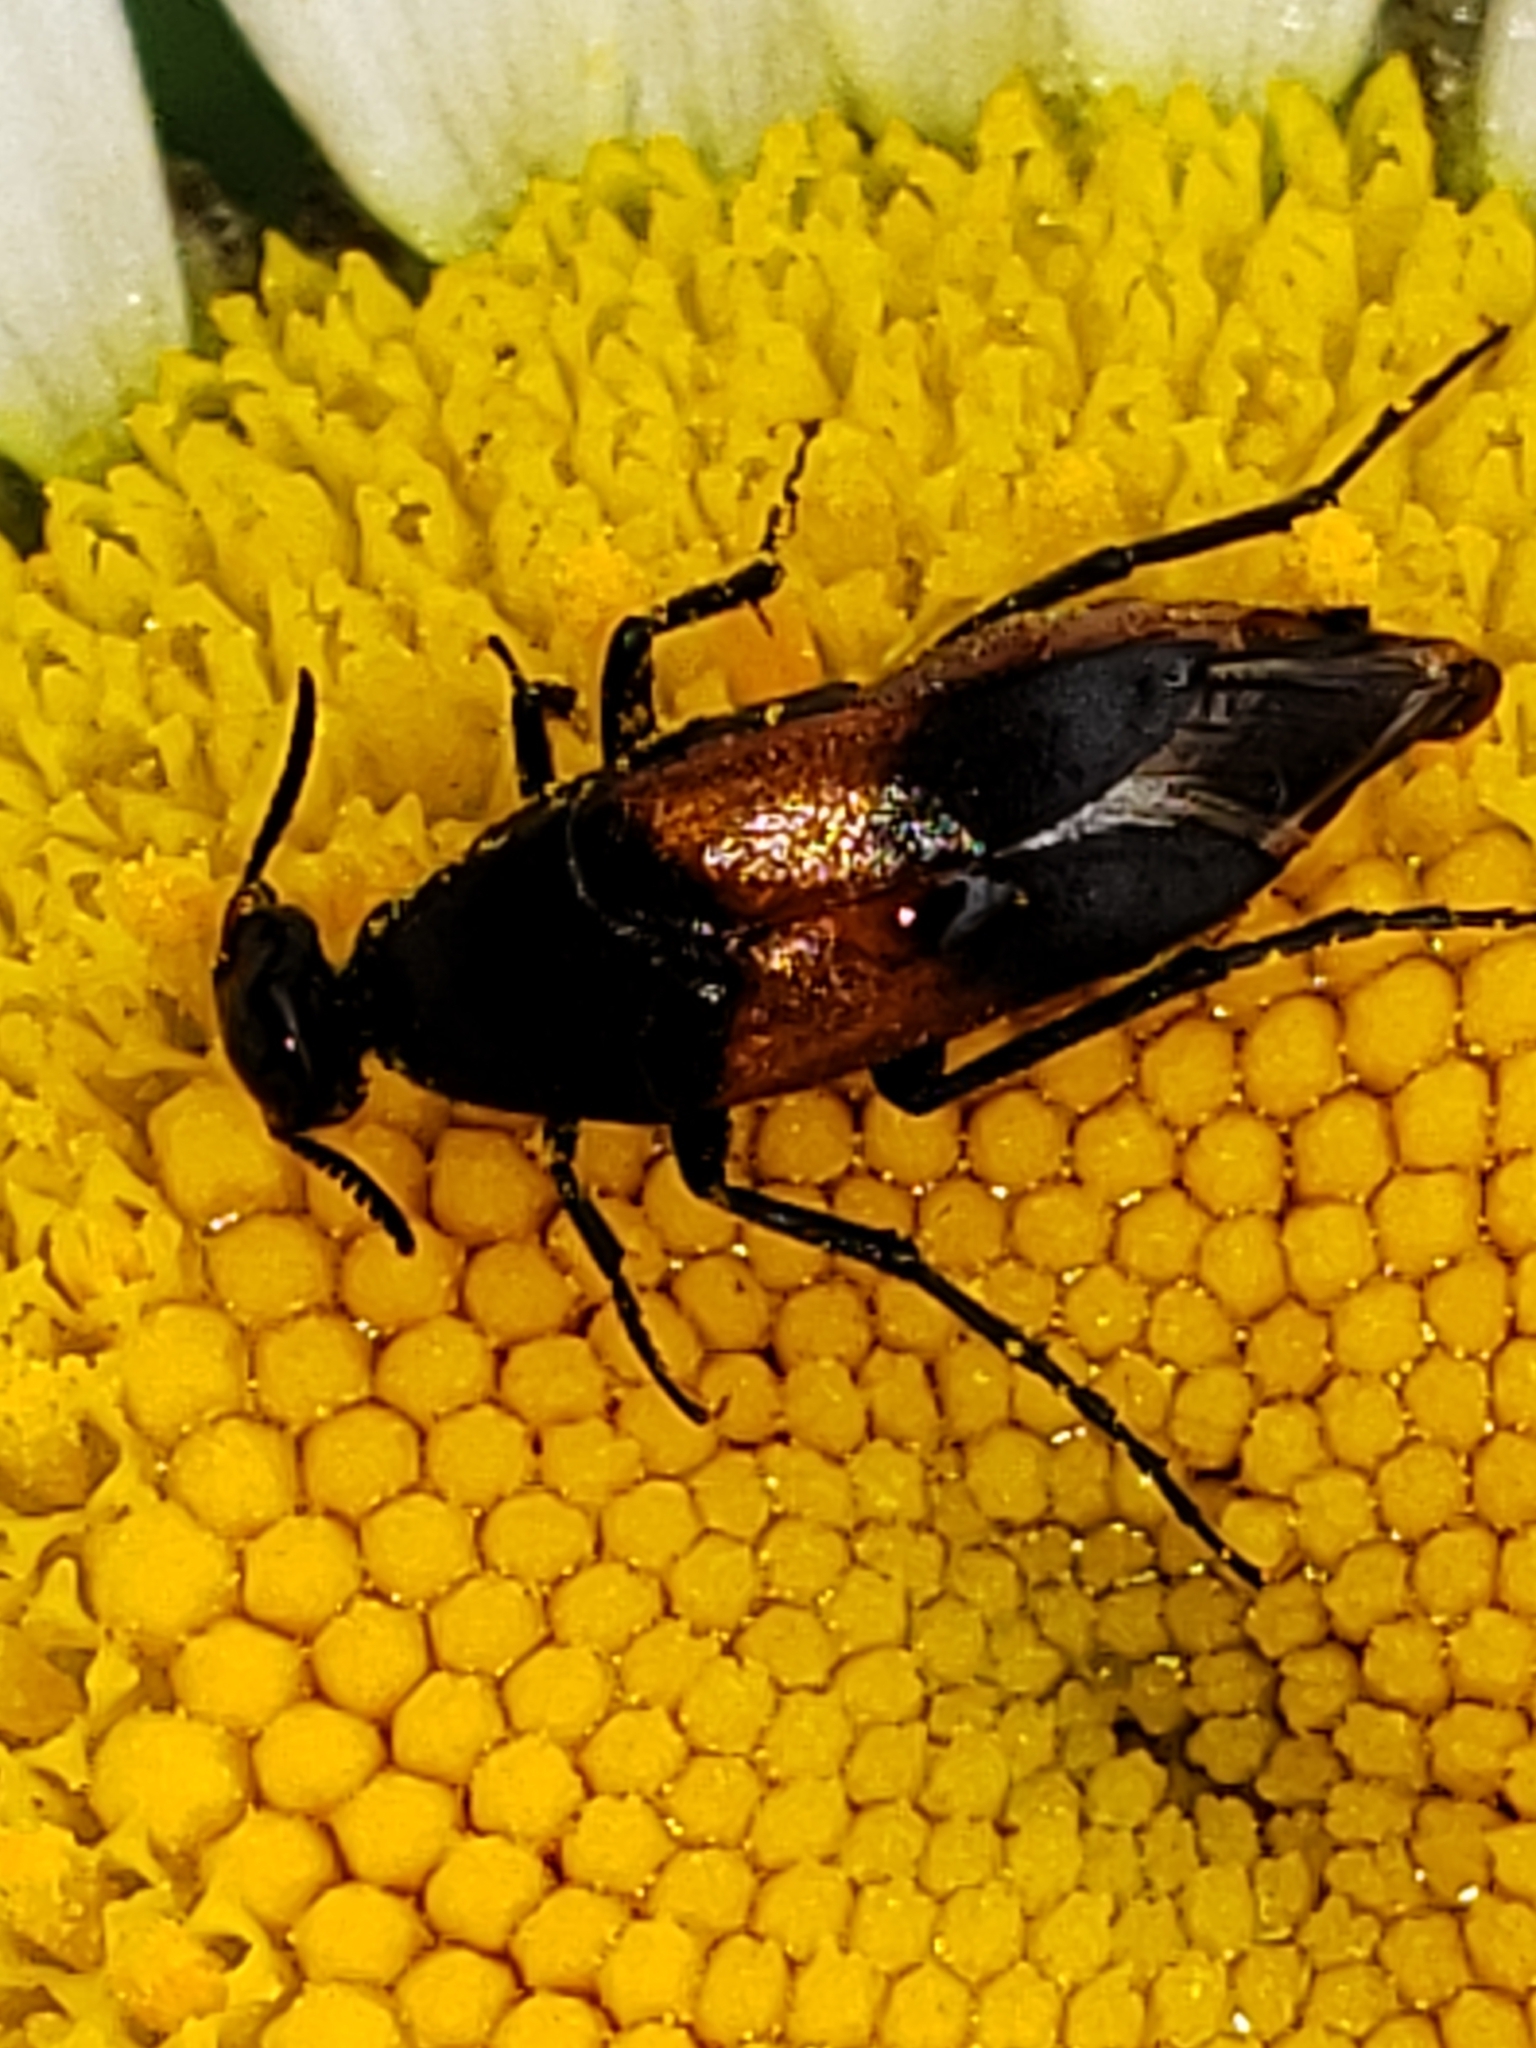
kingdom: Animalia
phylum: Arthropoda
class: Insecta
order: Coleoptera
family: Ripiphoridae
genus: Macrosiagon
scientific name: Macrosiagon cruentum
